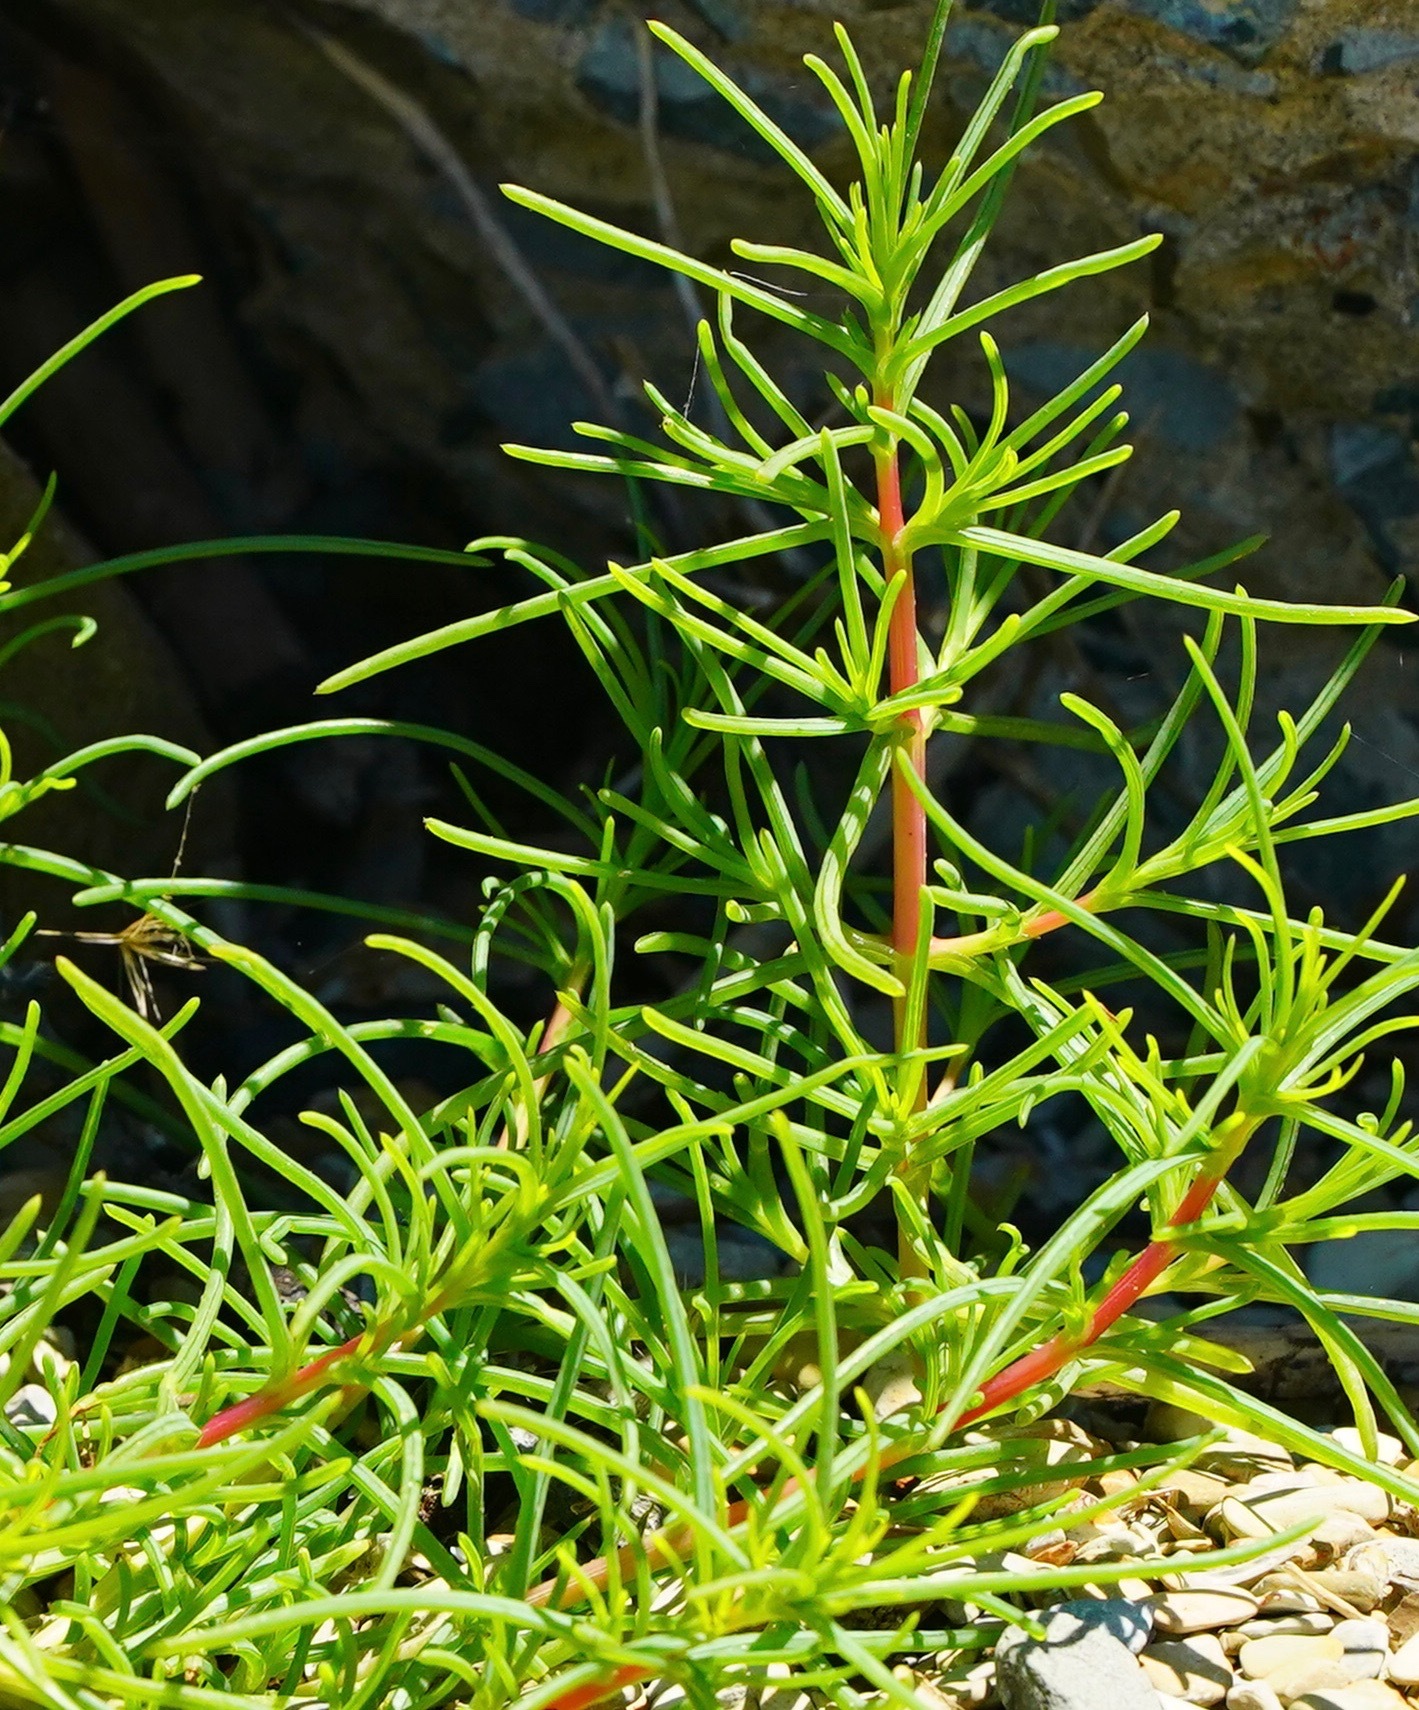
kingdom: Plantae
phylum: Tracheophyta
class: Magnoliopsida
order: Caryophyllales
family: Amaranthaceae
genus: Salsola
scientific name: Salsola soda
